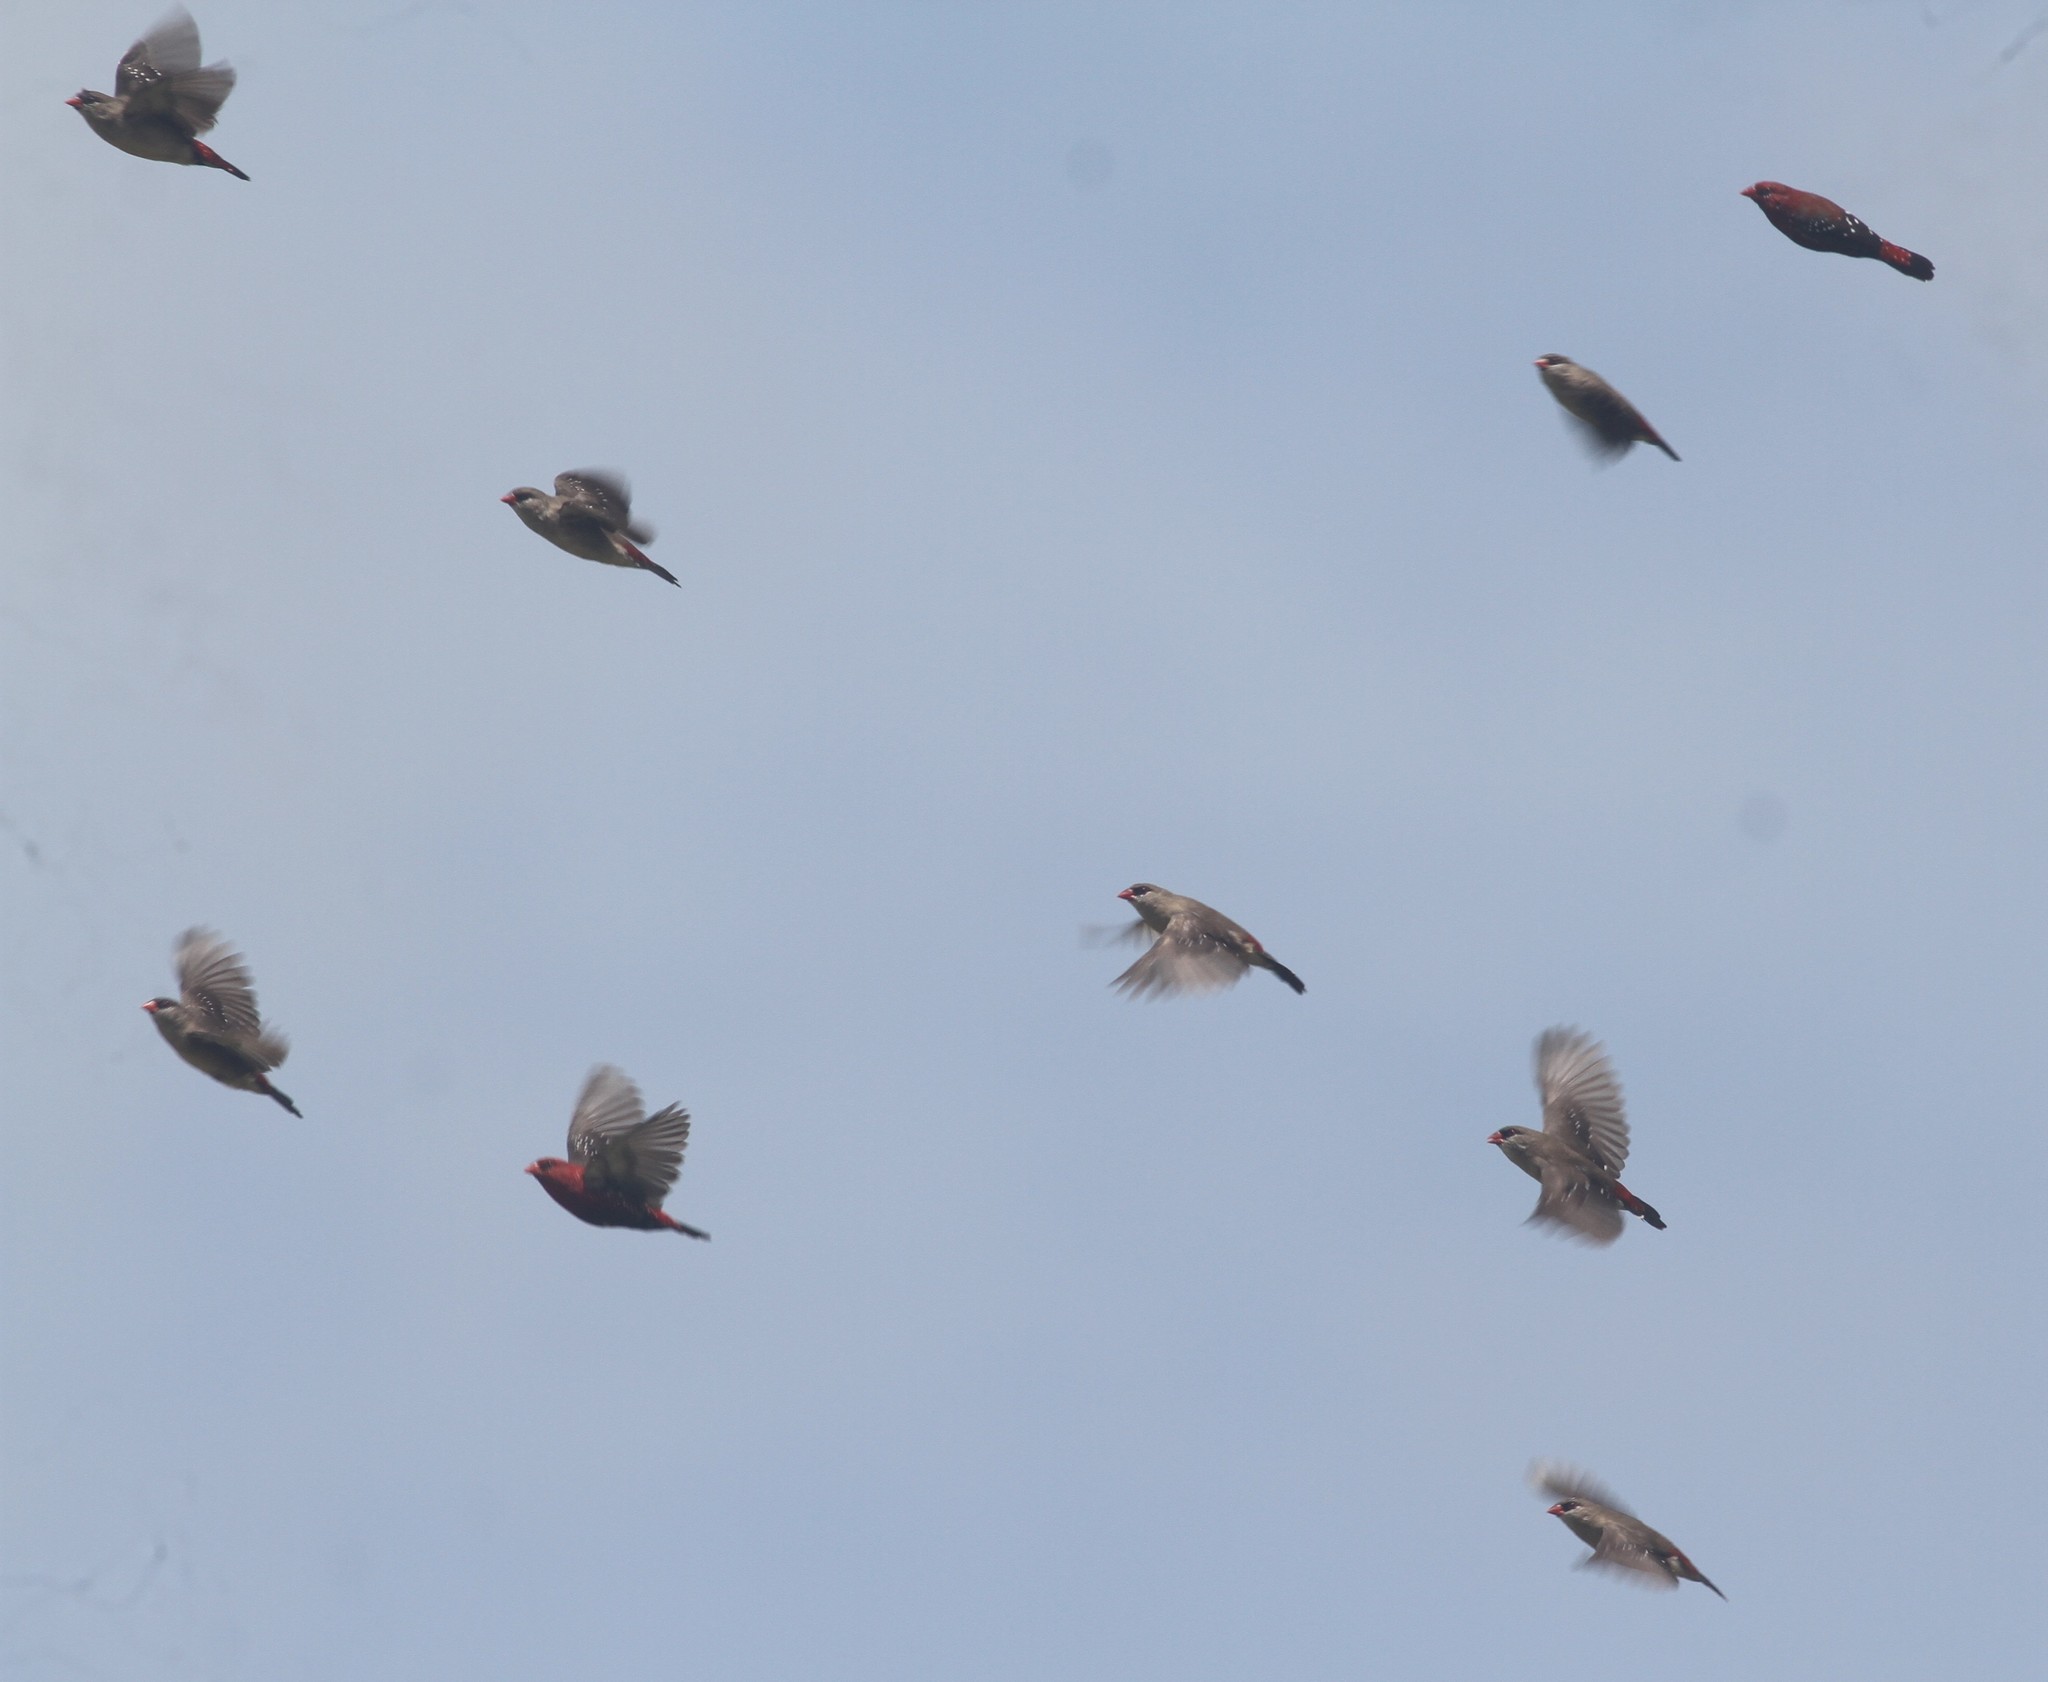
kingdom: Animalia
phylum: Chordata
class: Aves
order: Passeriformes
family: Estrildidae
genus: Amandava
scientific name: Amandava amandava
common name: Red avadavat
